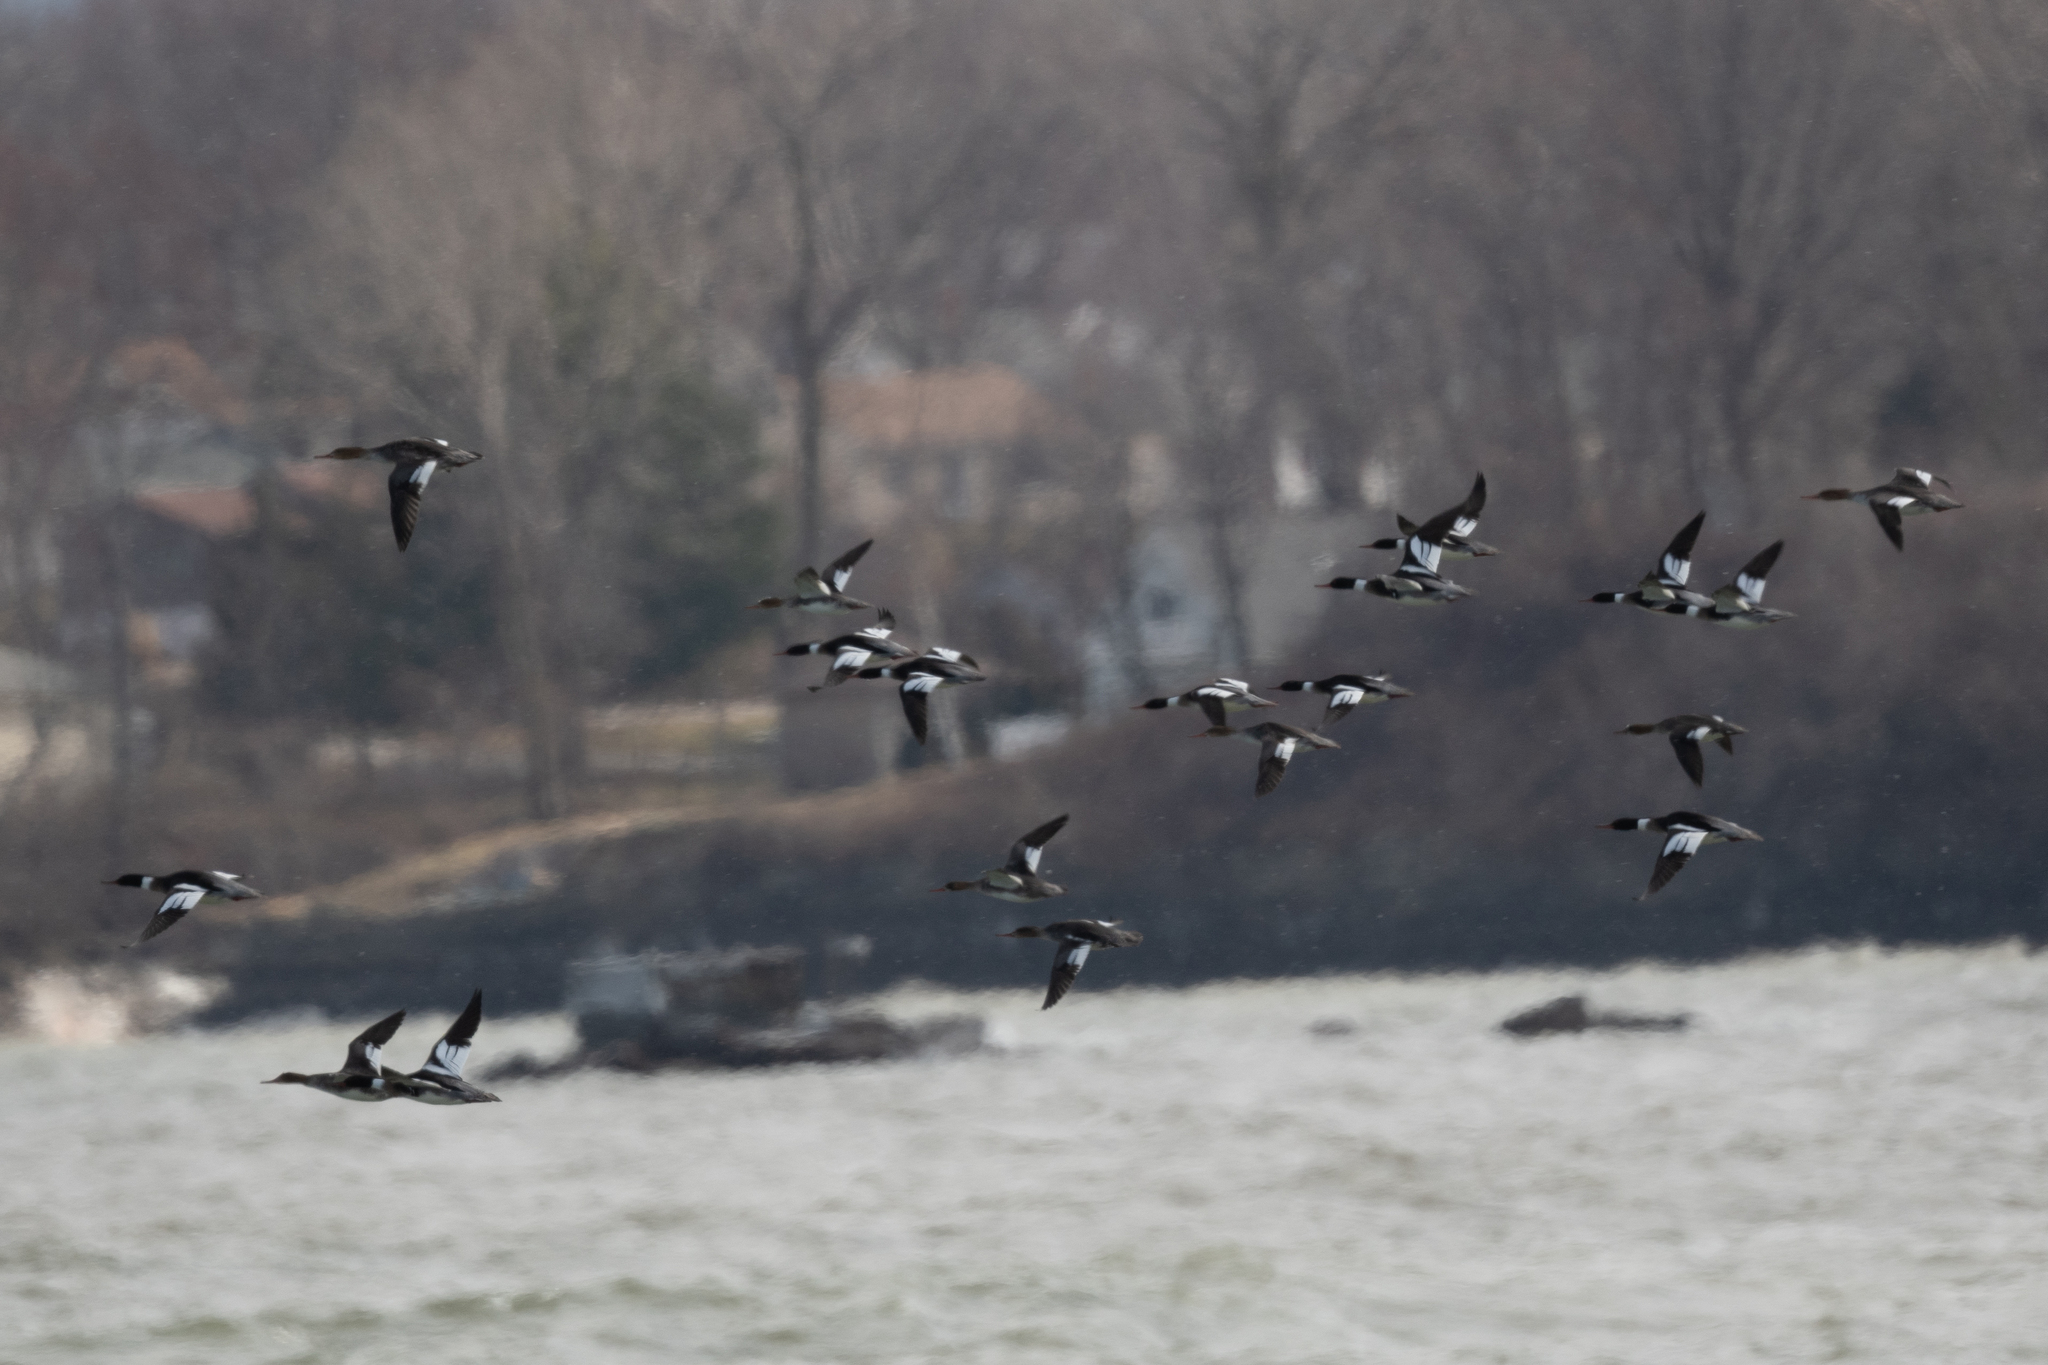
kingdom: Animalia
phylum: Chordata
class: Aves
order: Anseriformes
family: Anatidae
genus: Mergus
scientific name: Mergus serrator
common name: Red-breasted merganser
